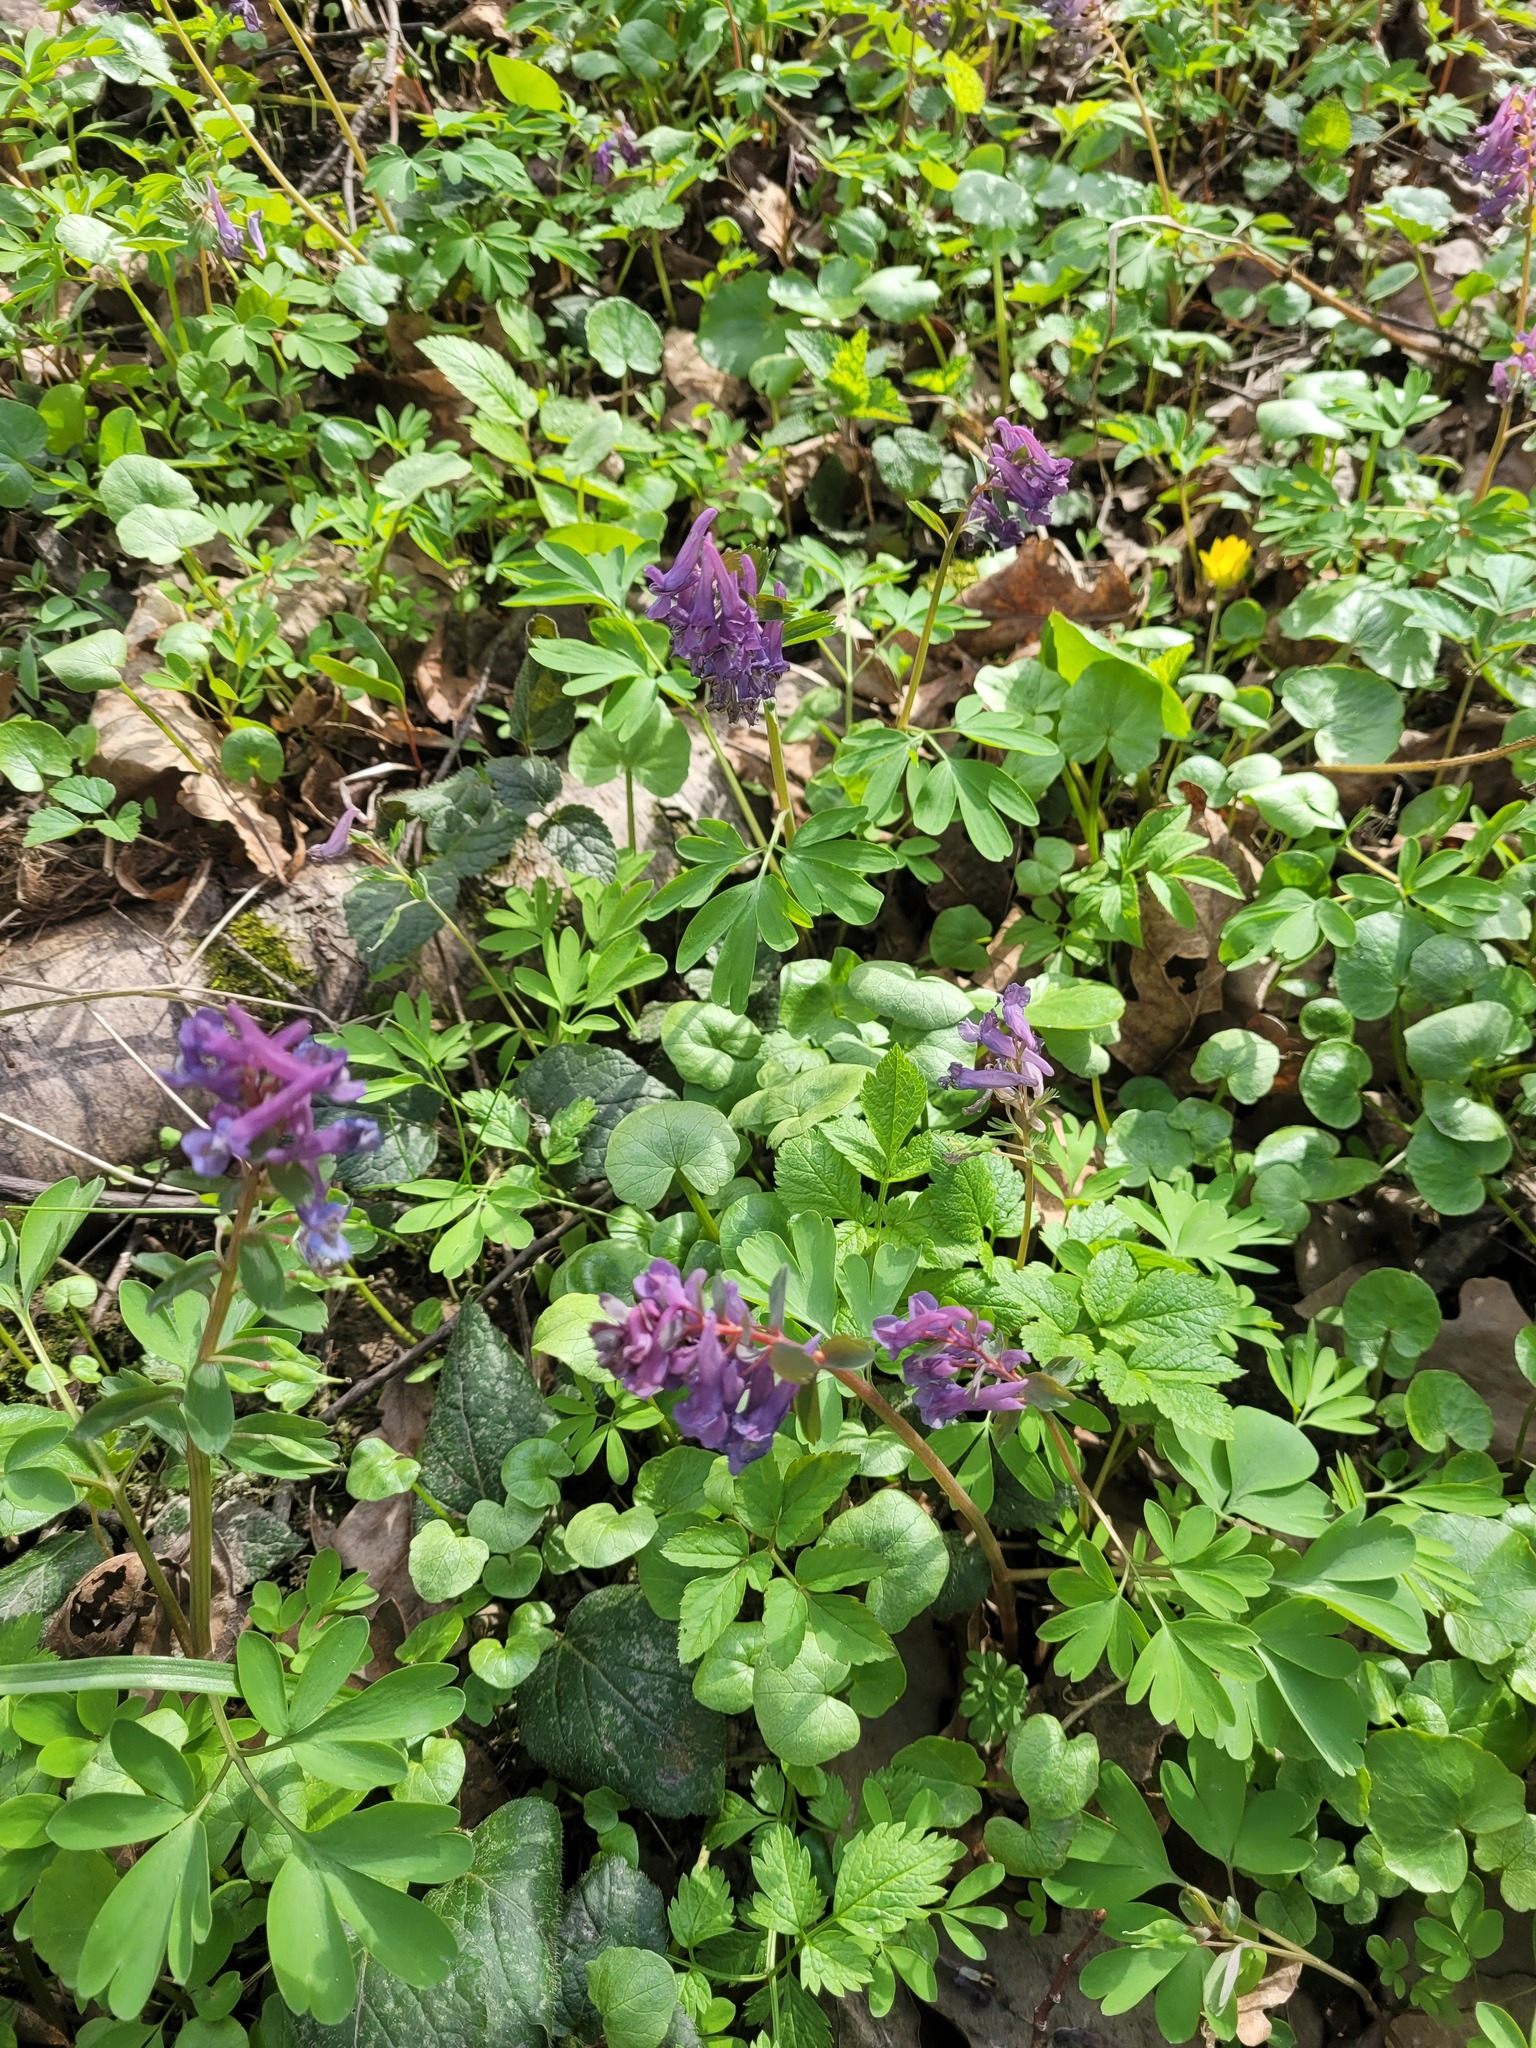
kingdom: Plantae
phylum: Tracheophyta
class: Magnoliopsida
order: Ranunculales
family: Papaveraceae
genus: Corydalis
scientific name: Corydalis solida
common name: Bird-in-a-bush
